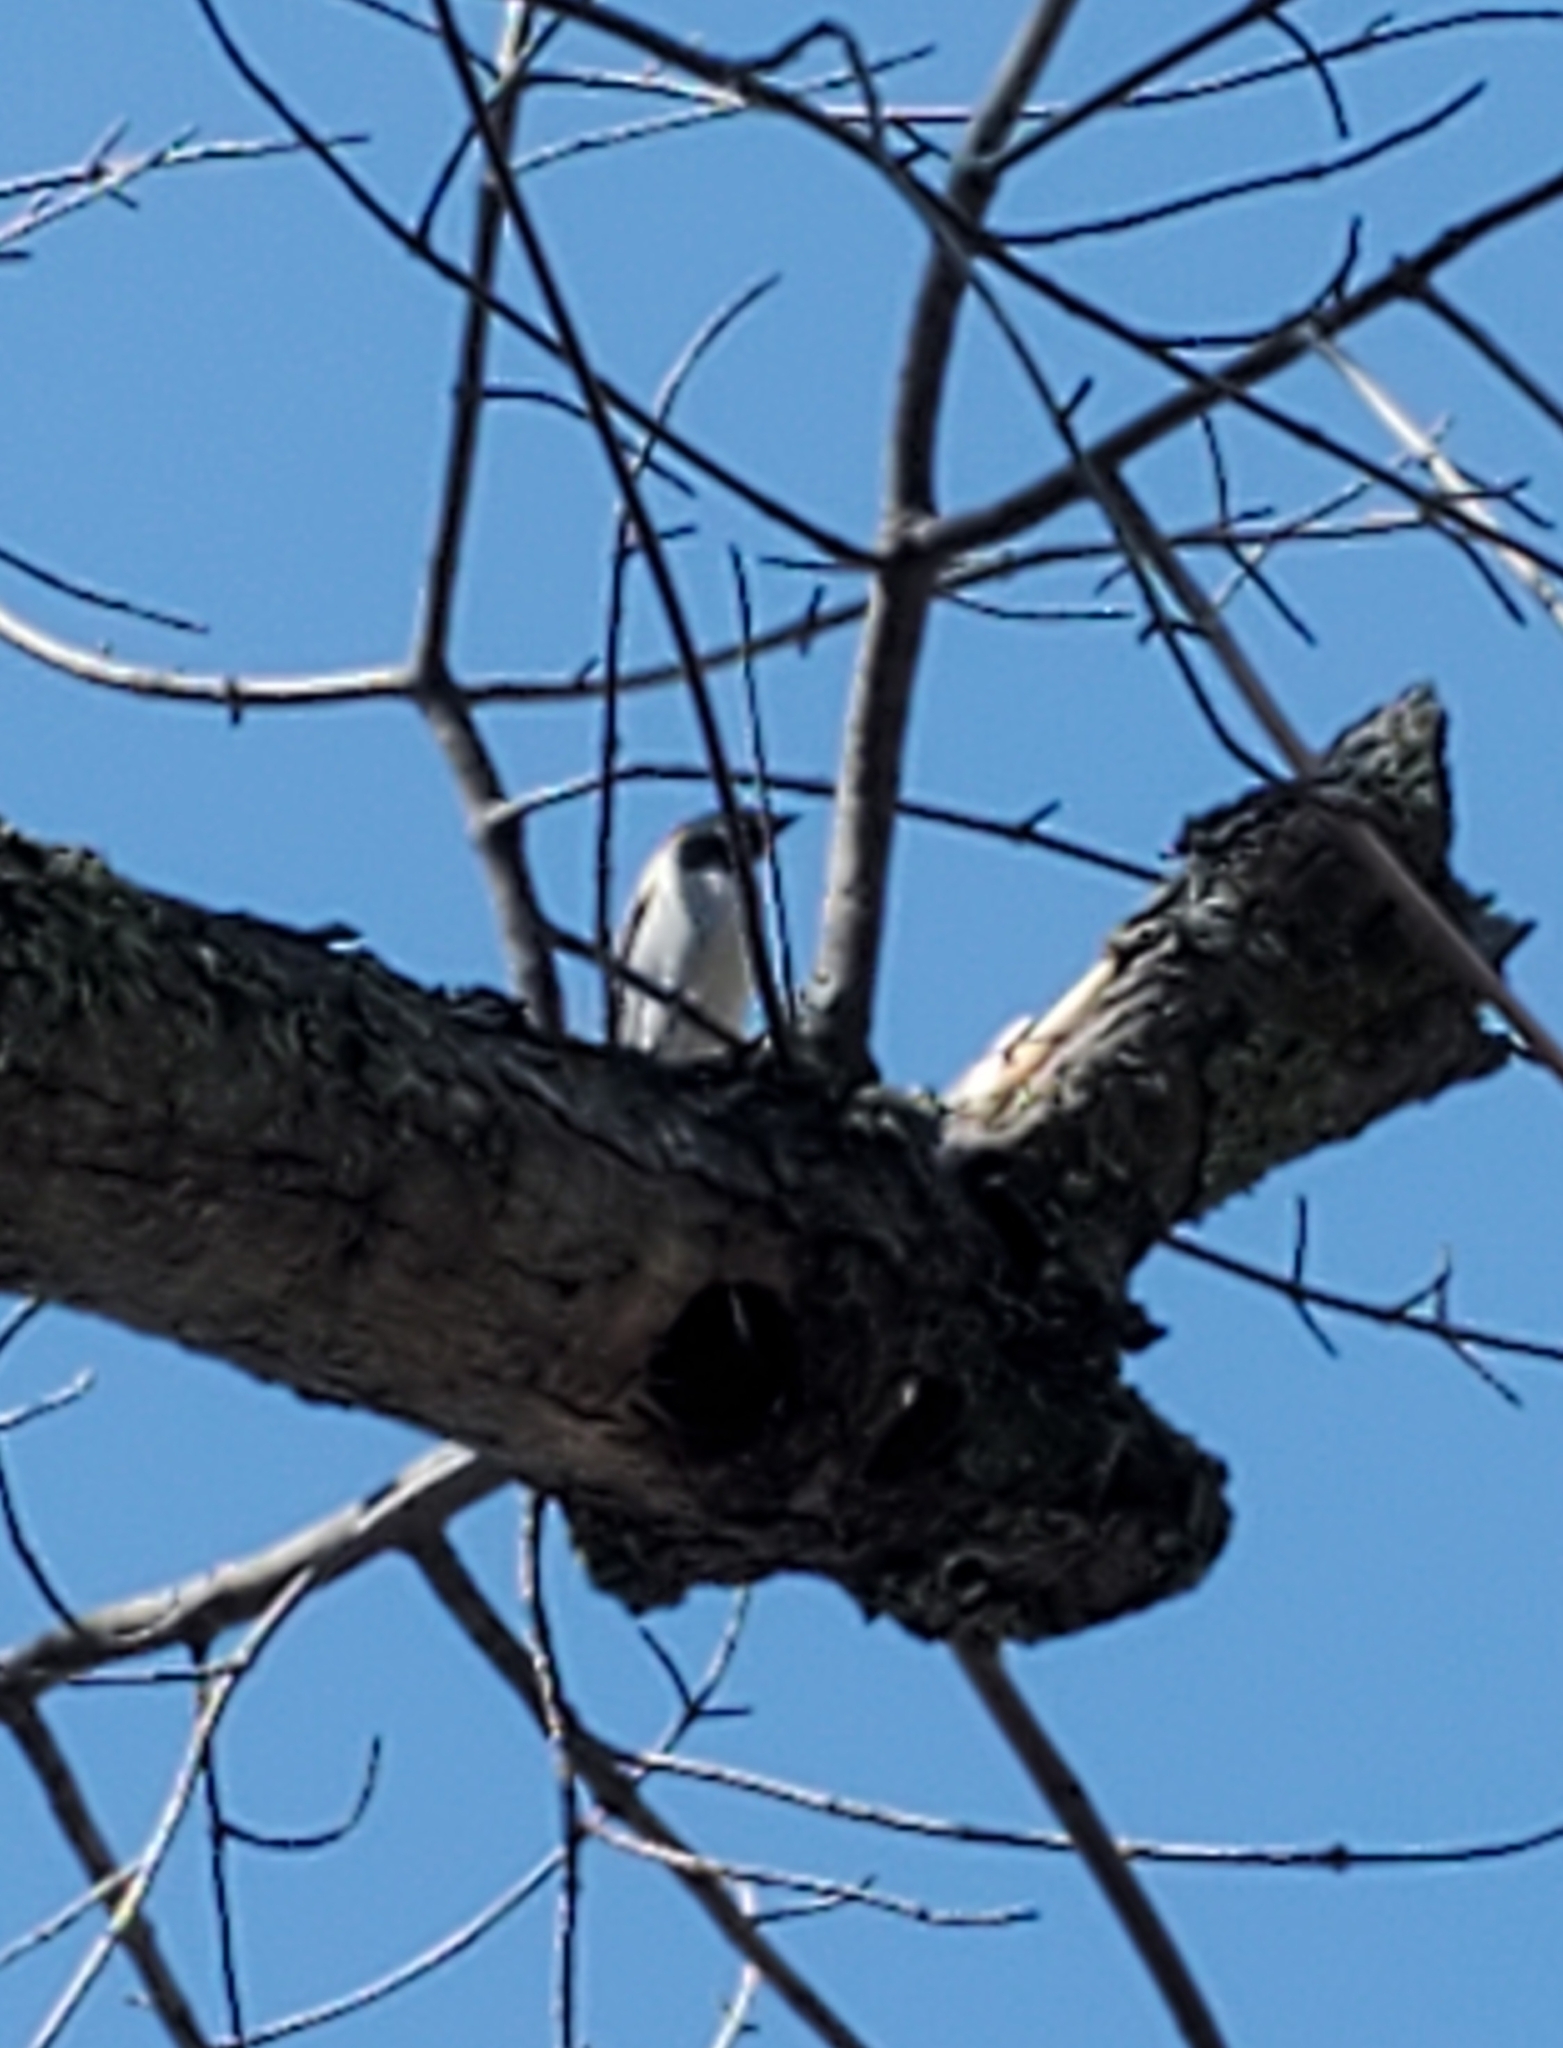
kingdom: Animalia
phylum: Chordata
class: Aves
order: Passeriformes
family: Passeridae
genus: Passer
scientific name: Passer domesticus
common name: House sparrow
